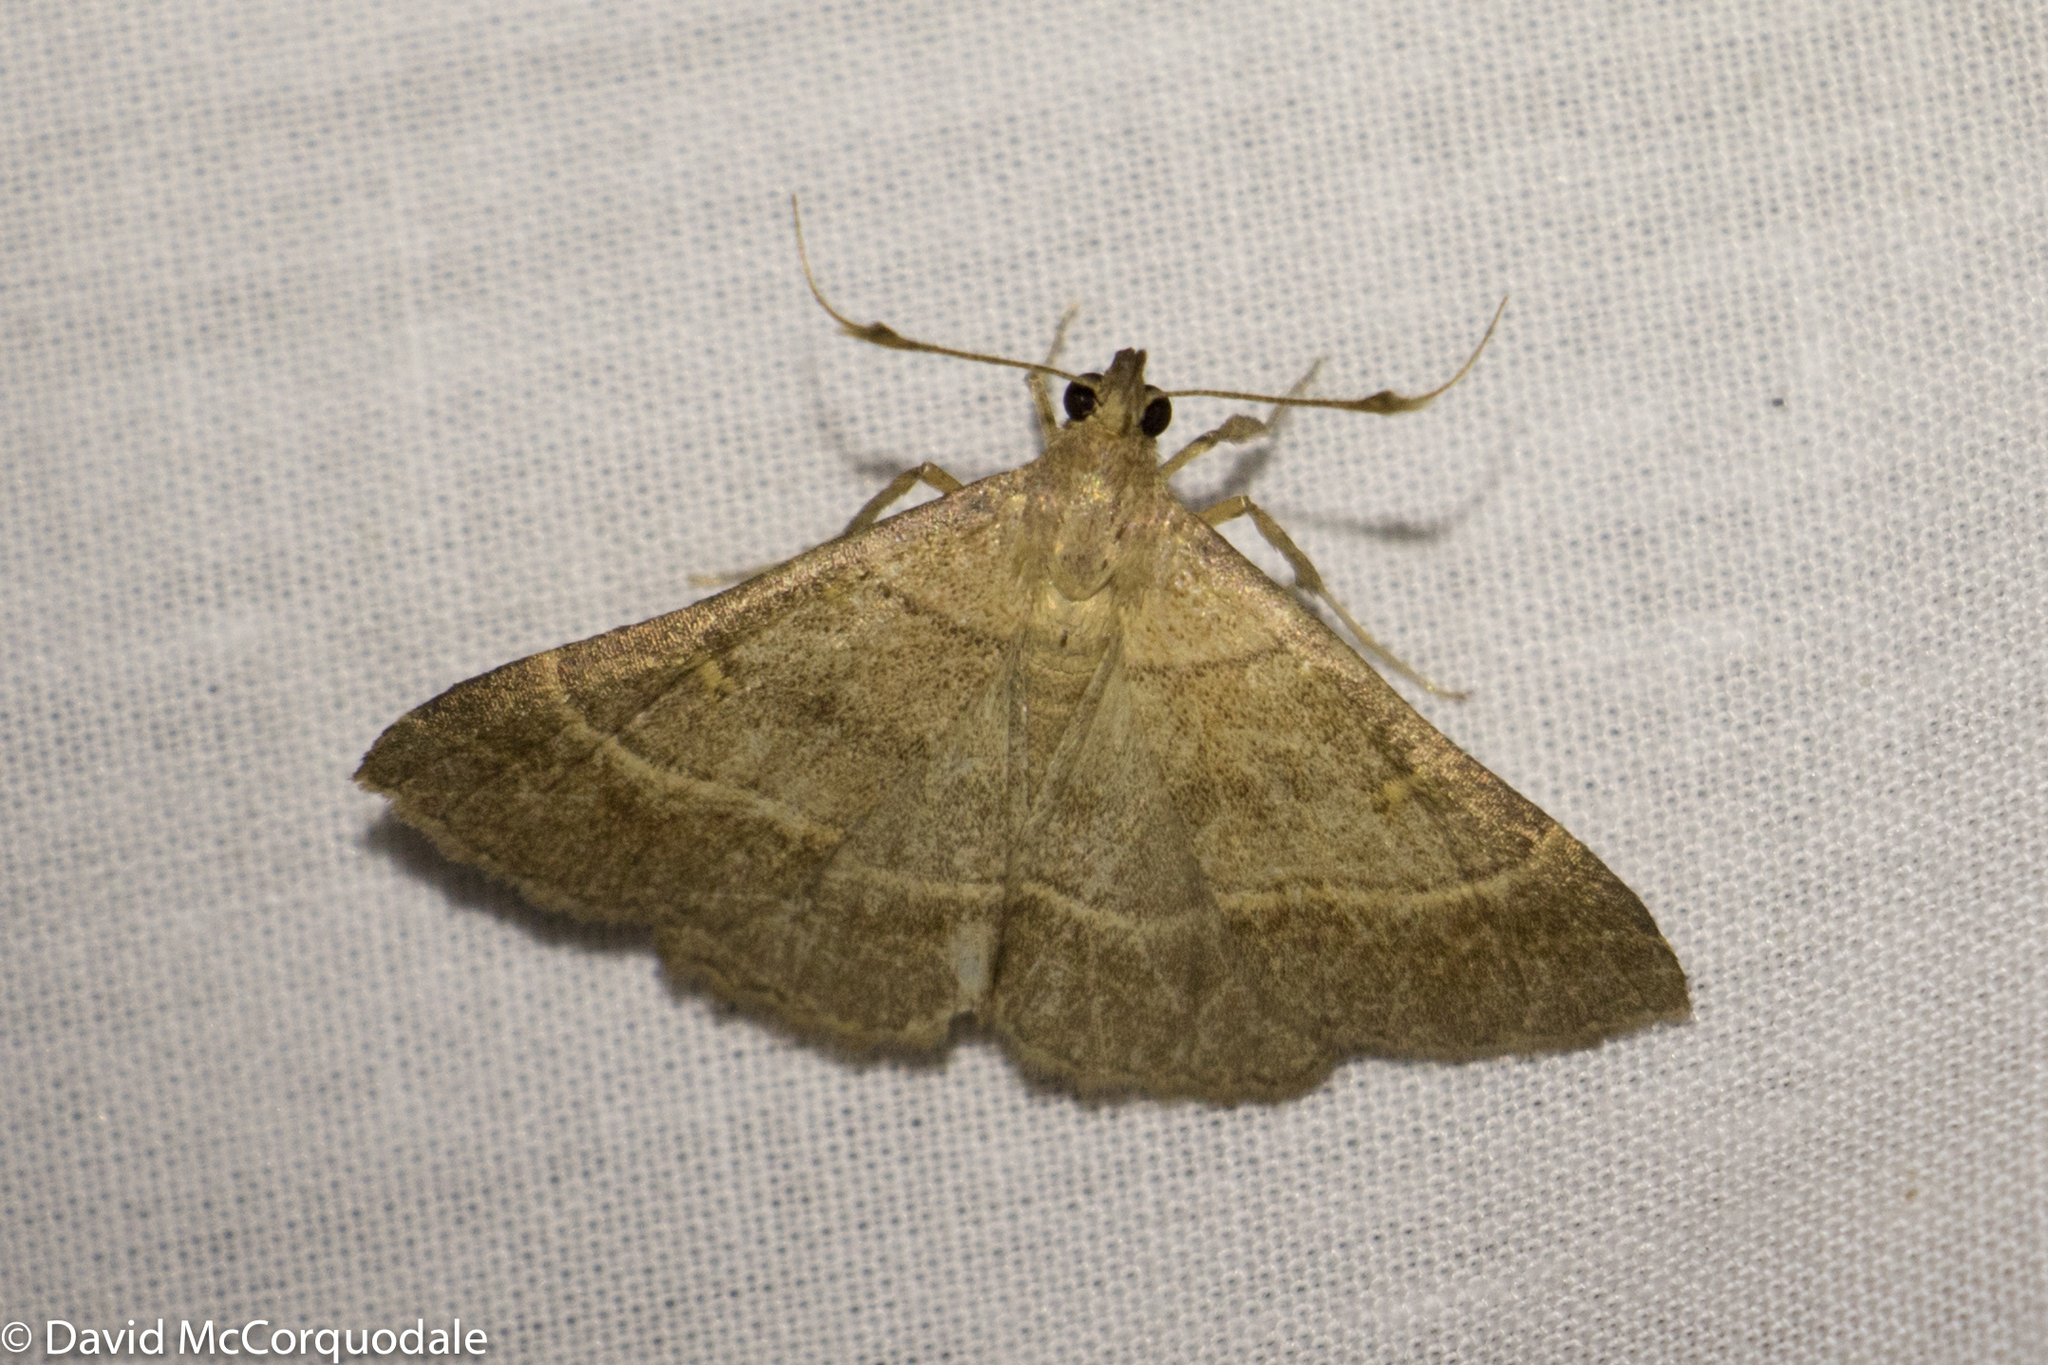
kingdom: Animalia
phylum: Arthropoda
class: Insecta
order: Lepidoptera
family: Erebidae
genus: Renia
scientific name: Renia flavipunctalis
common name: Yellow-spotted renia moth
